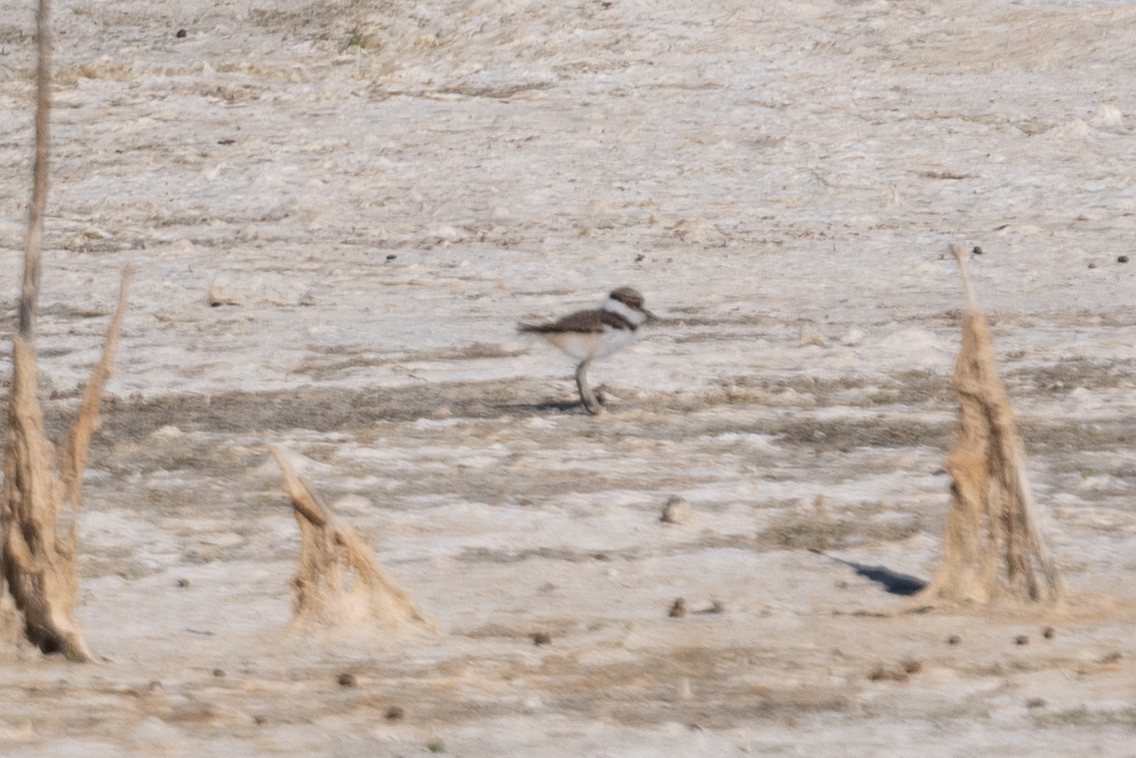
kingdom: Animalia
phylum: Chordata
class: Aves
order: Charadriiformes
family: Charadriidae
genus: Charadrius
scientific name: Charadrius vociferus
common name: Killdeer
